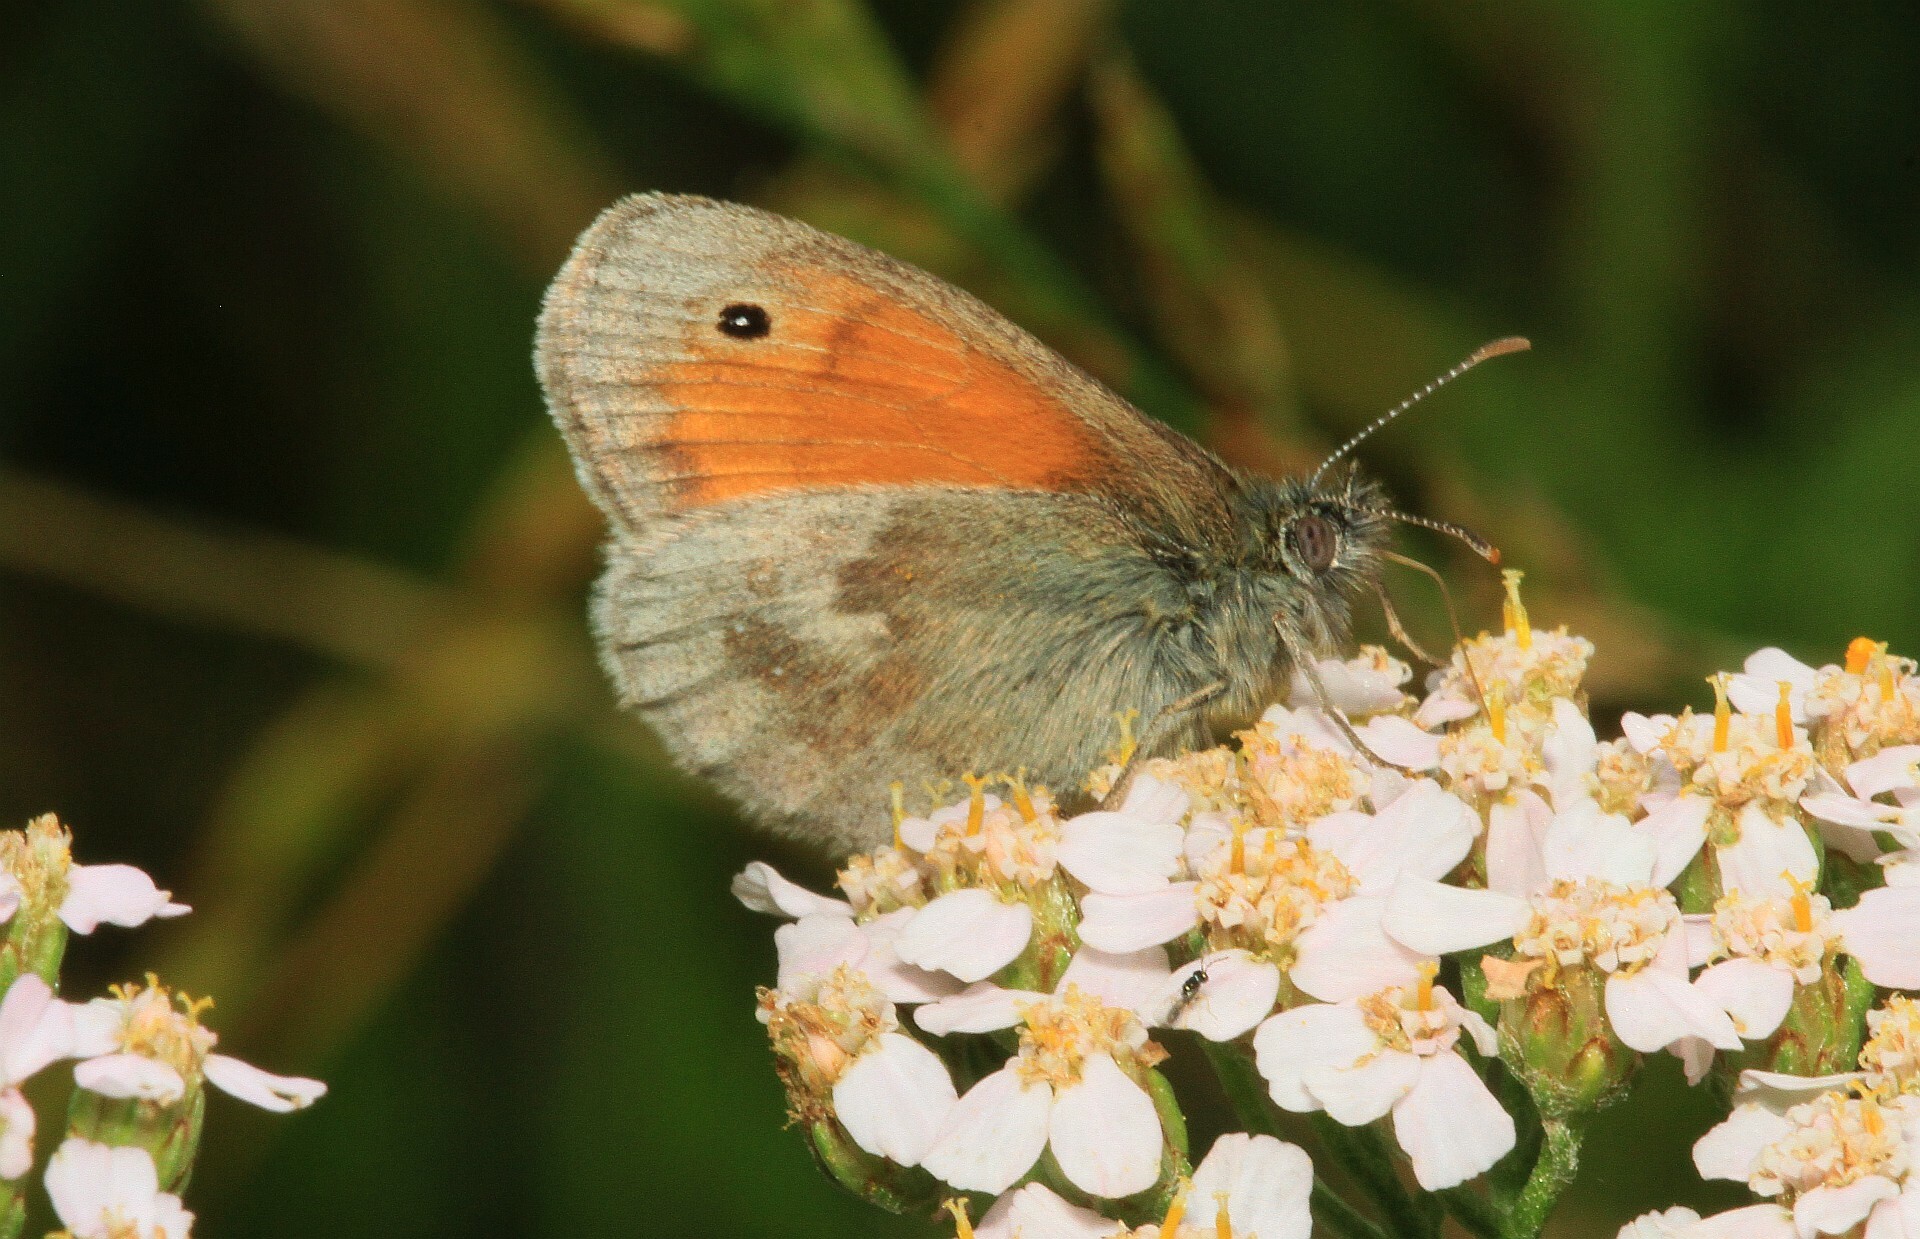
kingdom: Animalia
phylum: Arthropoda
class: Insecta
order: Lepidoptera
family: Nymphalidae
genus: Coenonympha
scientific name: Coenonympha pamphilus
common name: Small heath
